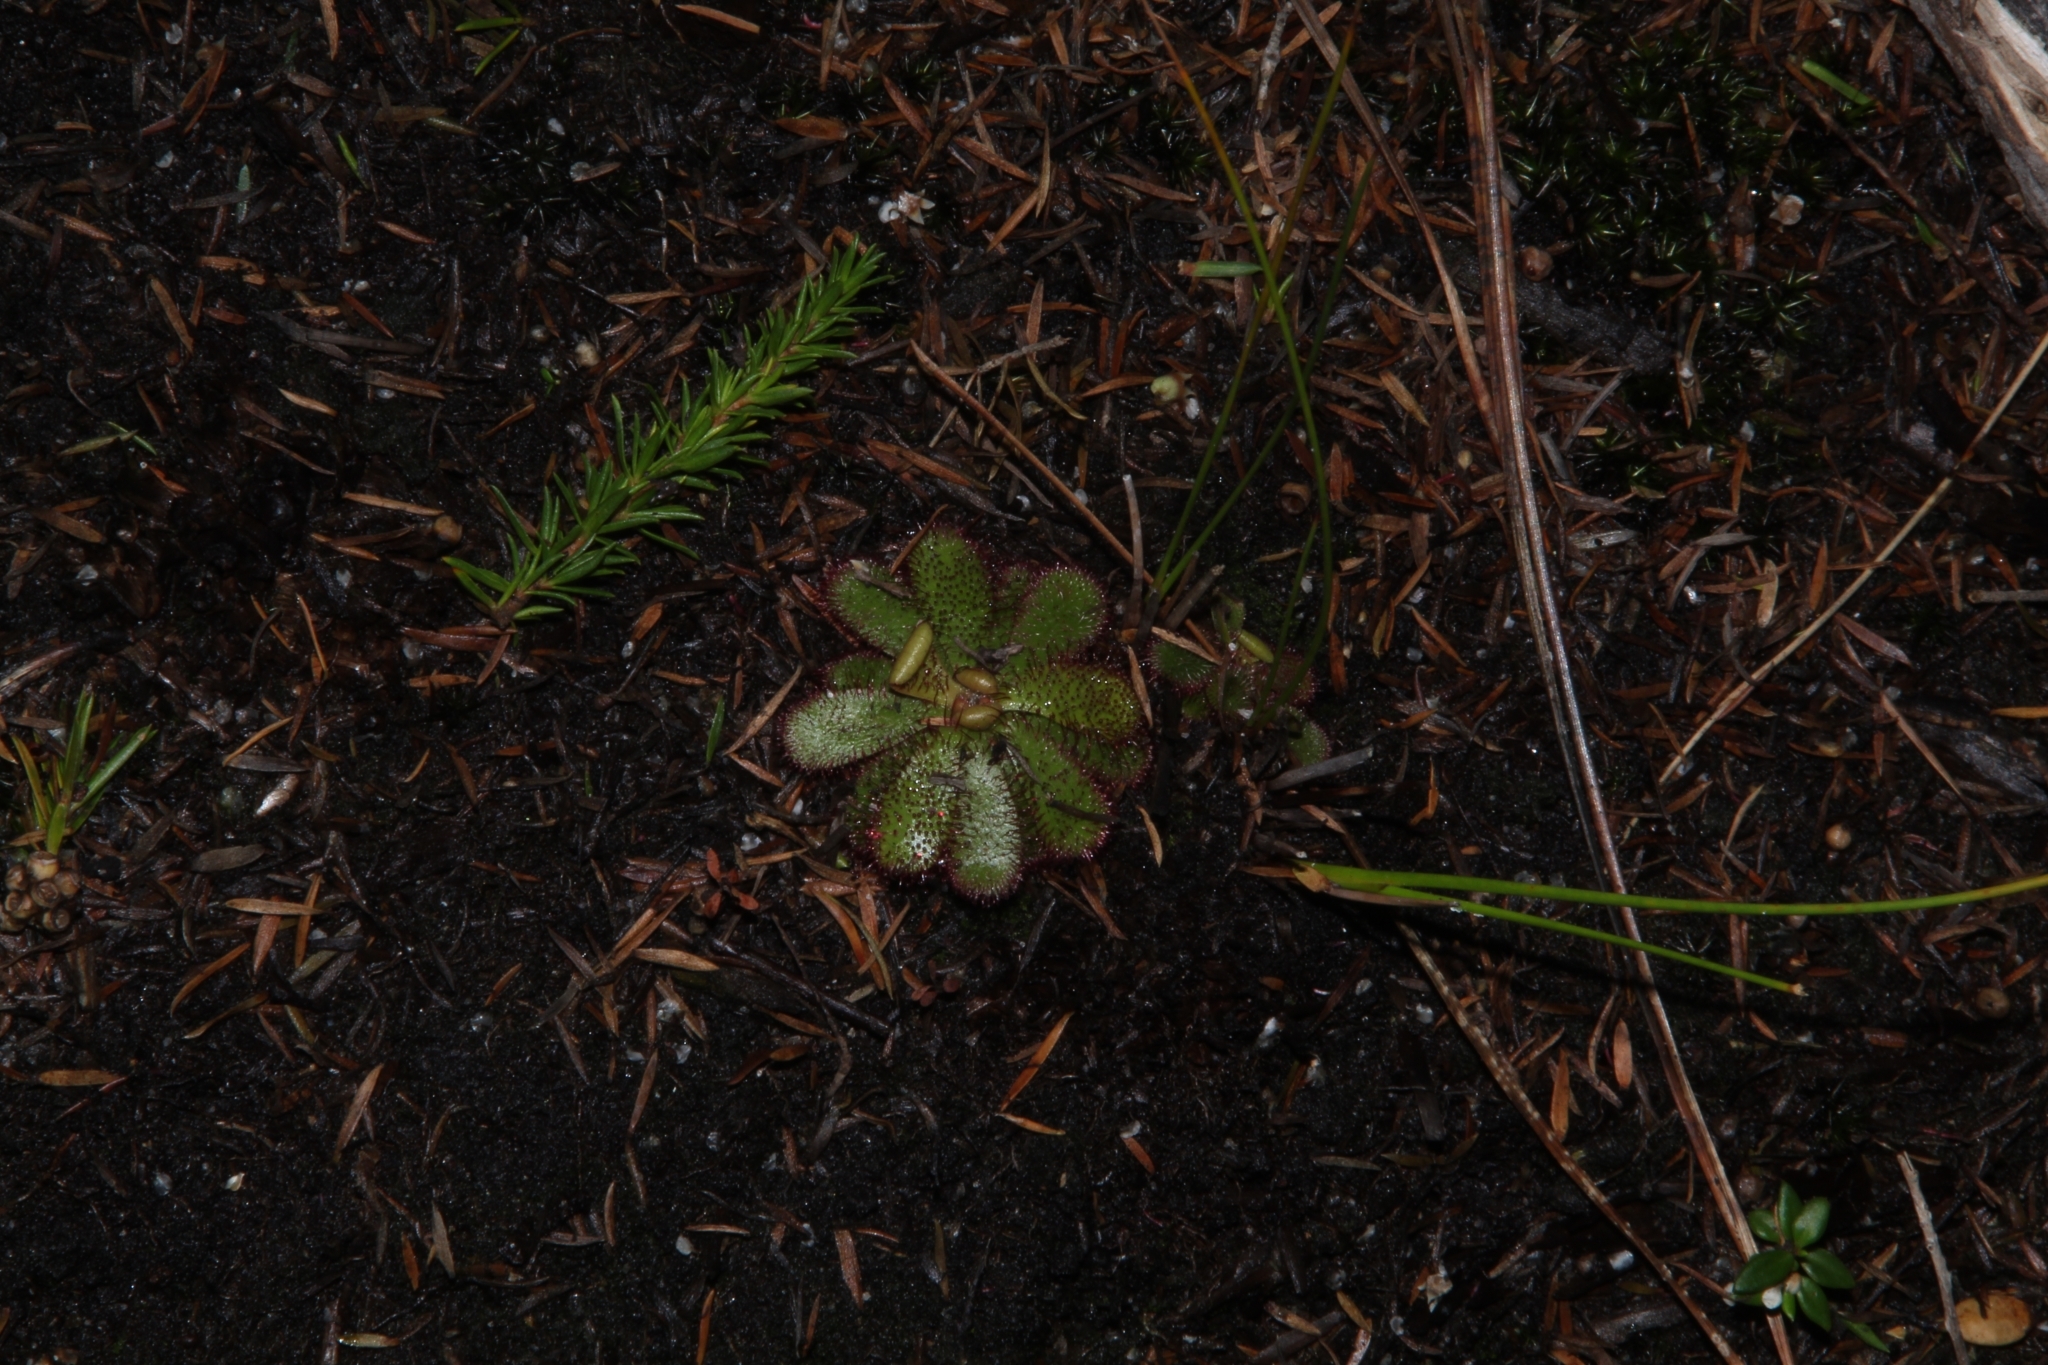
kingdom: Plantae
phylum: Tracheophyta
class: Magnoliopsida
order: Caryophyllales
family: Droseraceae
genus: Drosera
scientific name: Drosera hamiltonii
